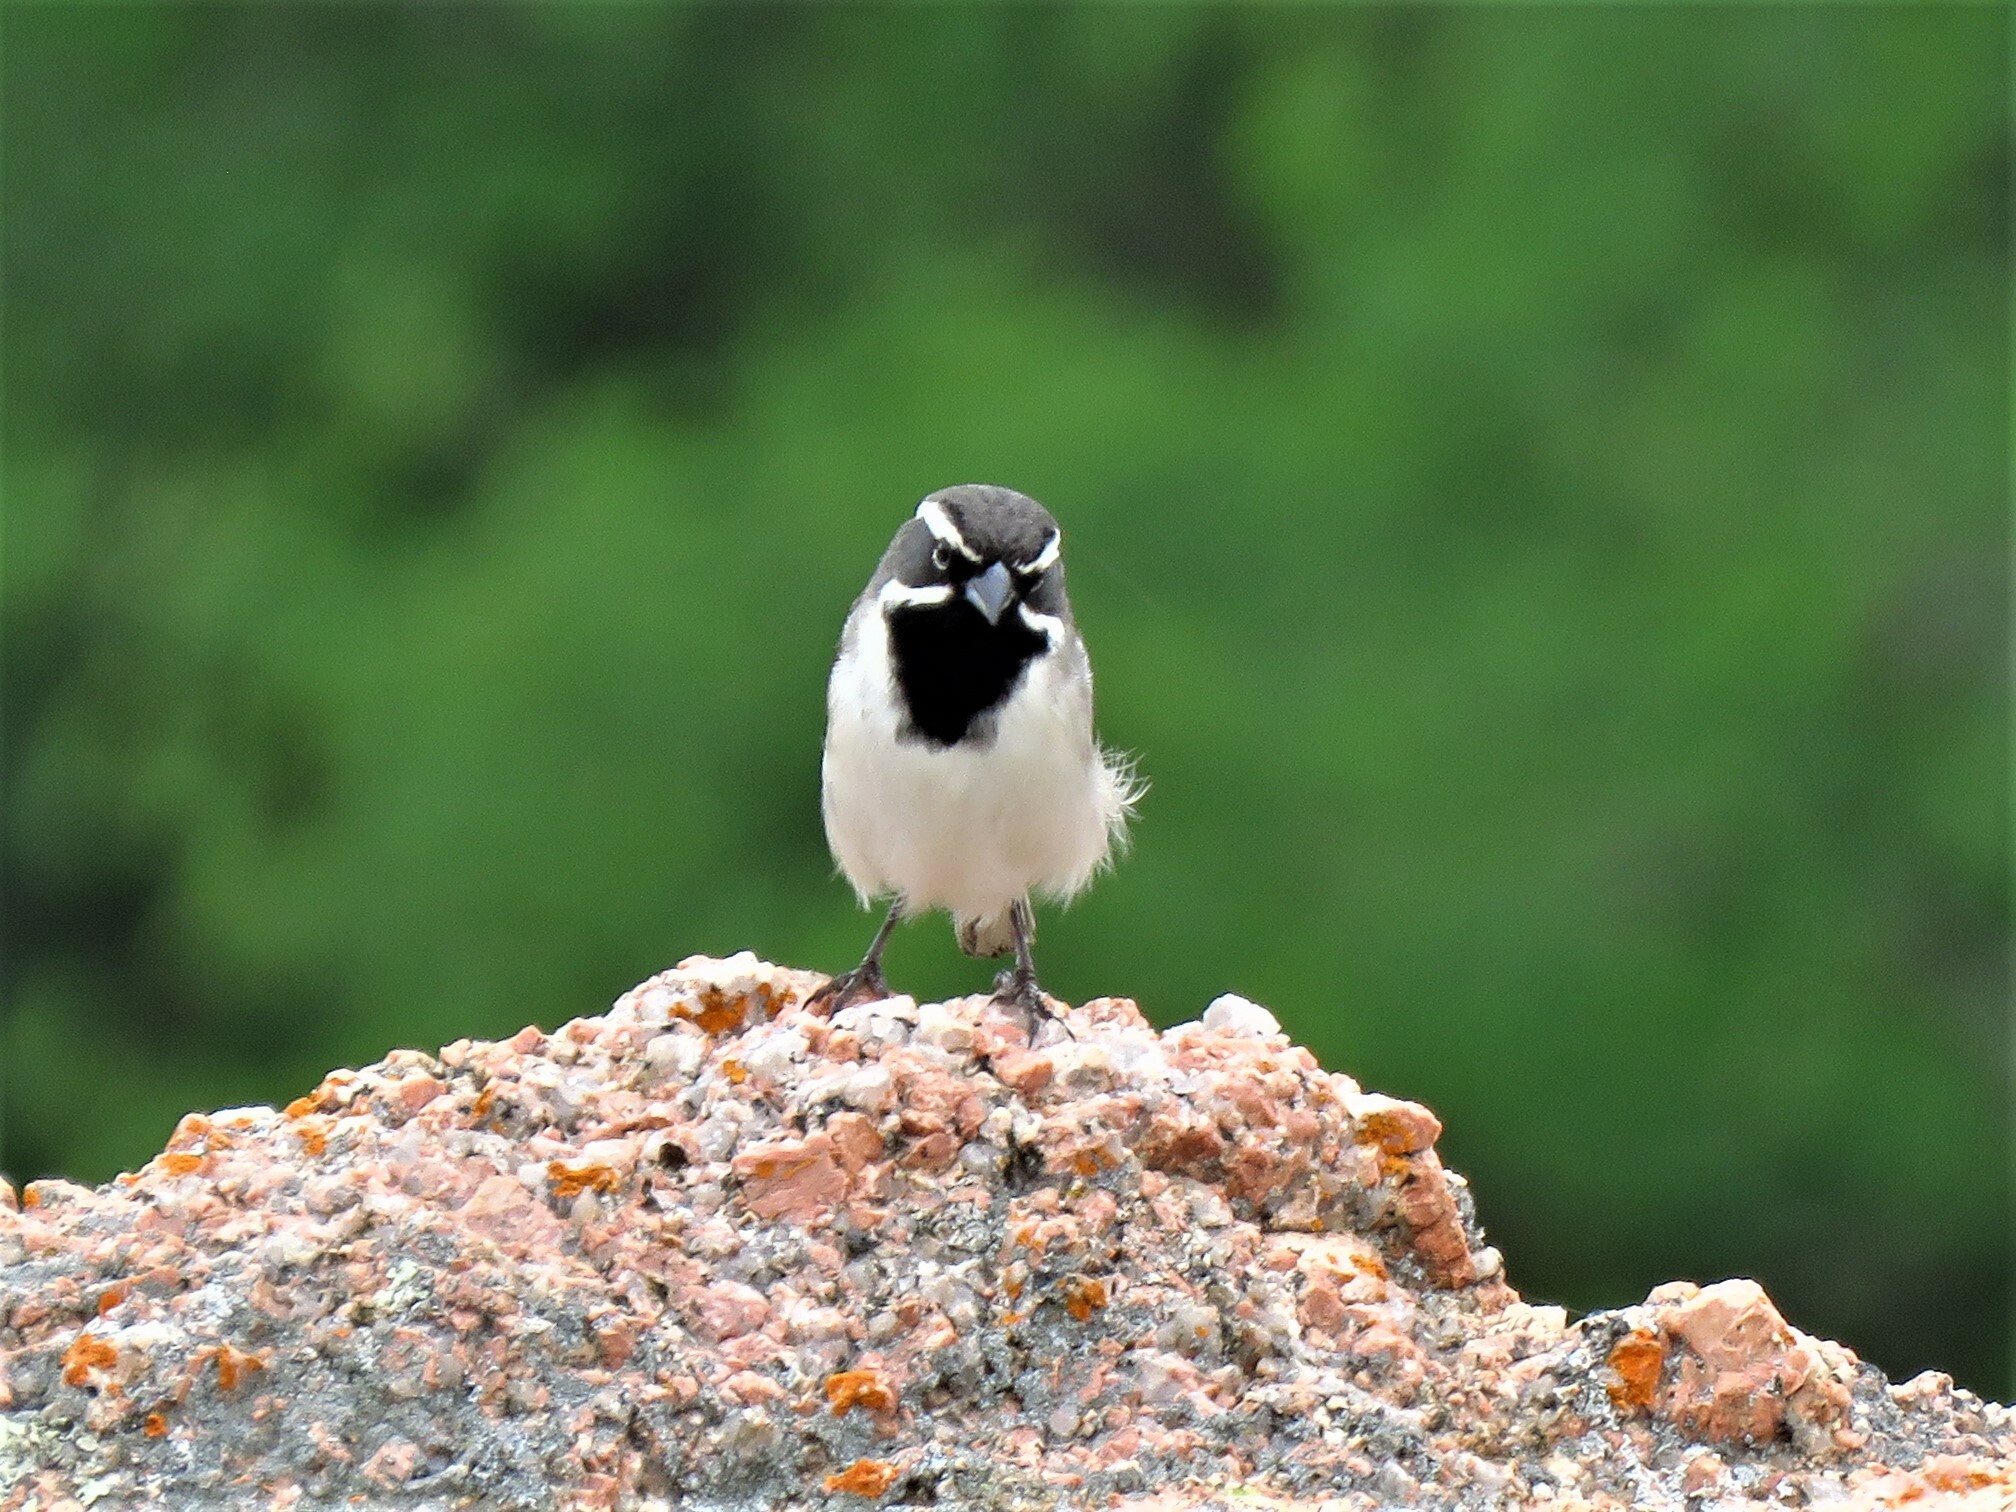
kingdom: Animalia
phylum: Chordata
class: Aves
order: Passeriformes
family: Passerellidae
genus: Amphispiza
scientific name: Amphispiza bilineata
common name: Black-throated sparrow
